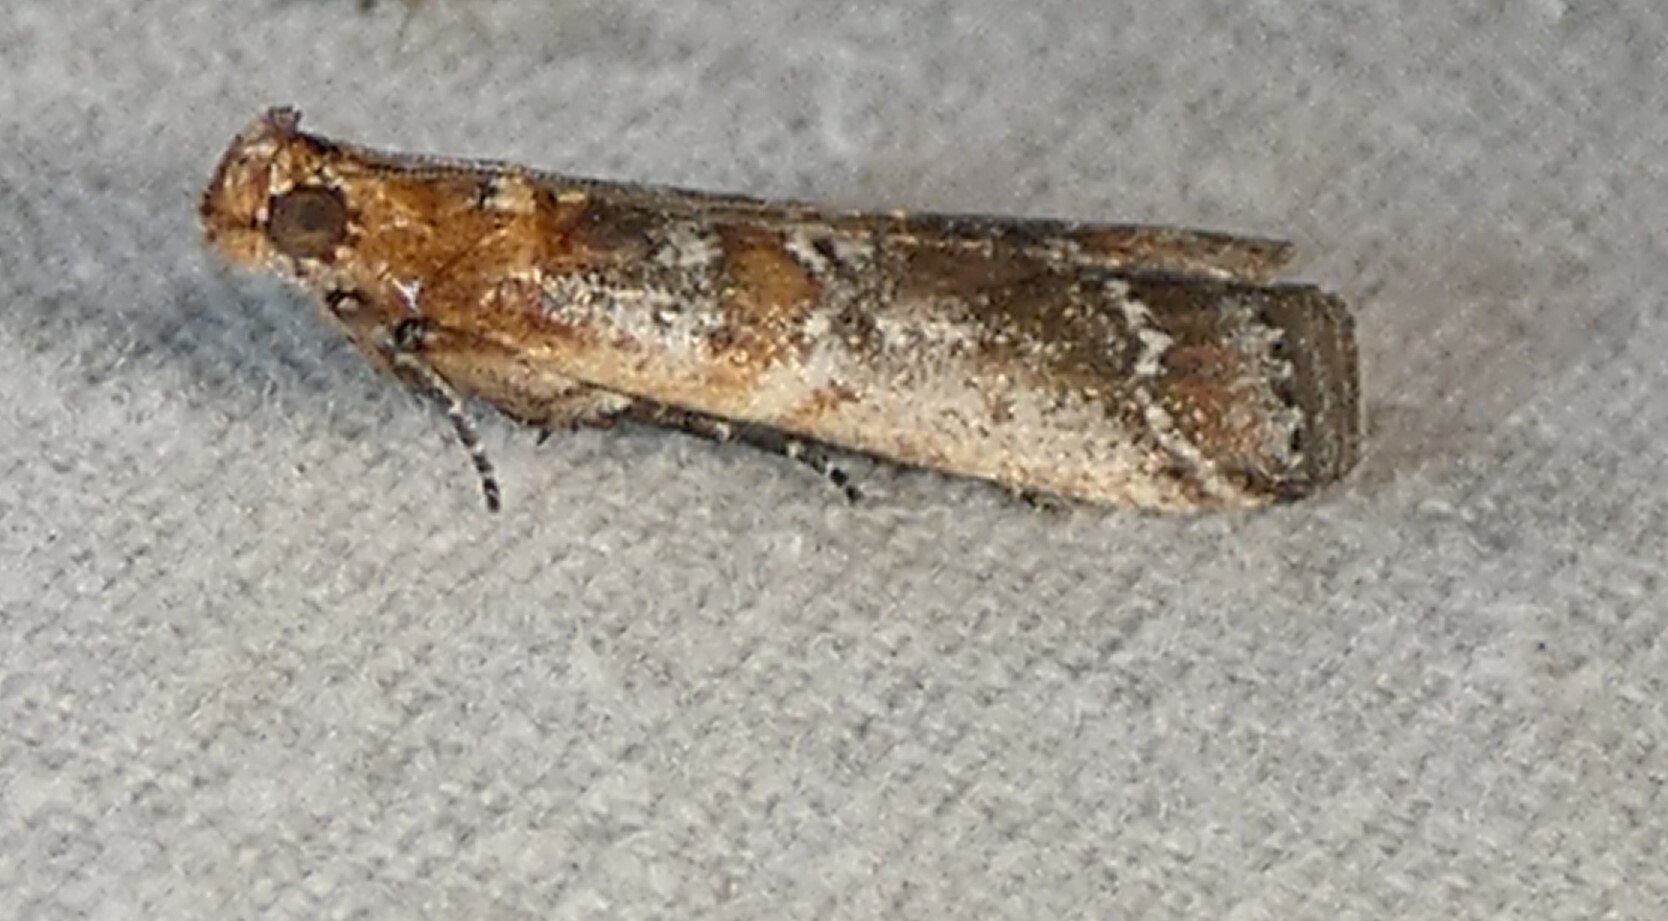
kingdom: Animalia
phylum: Arthropoda
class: Insecta
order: Lepidoptera
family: Pyralidae
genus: Adelphia
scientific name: Adelphia petrella
